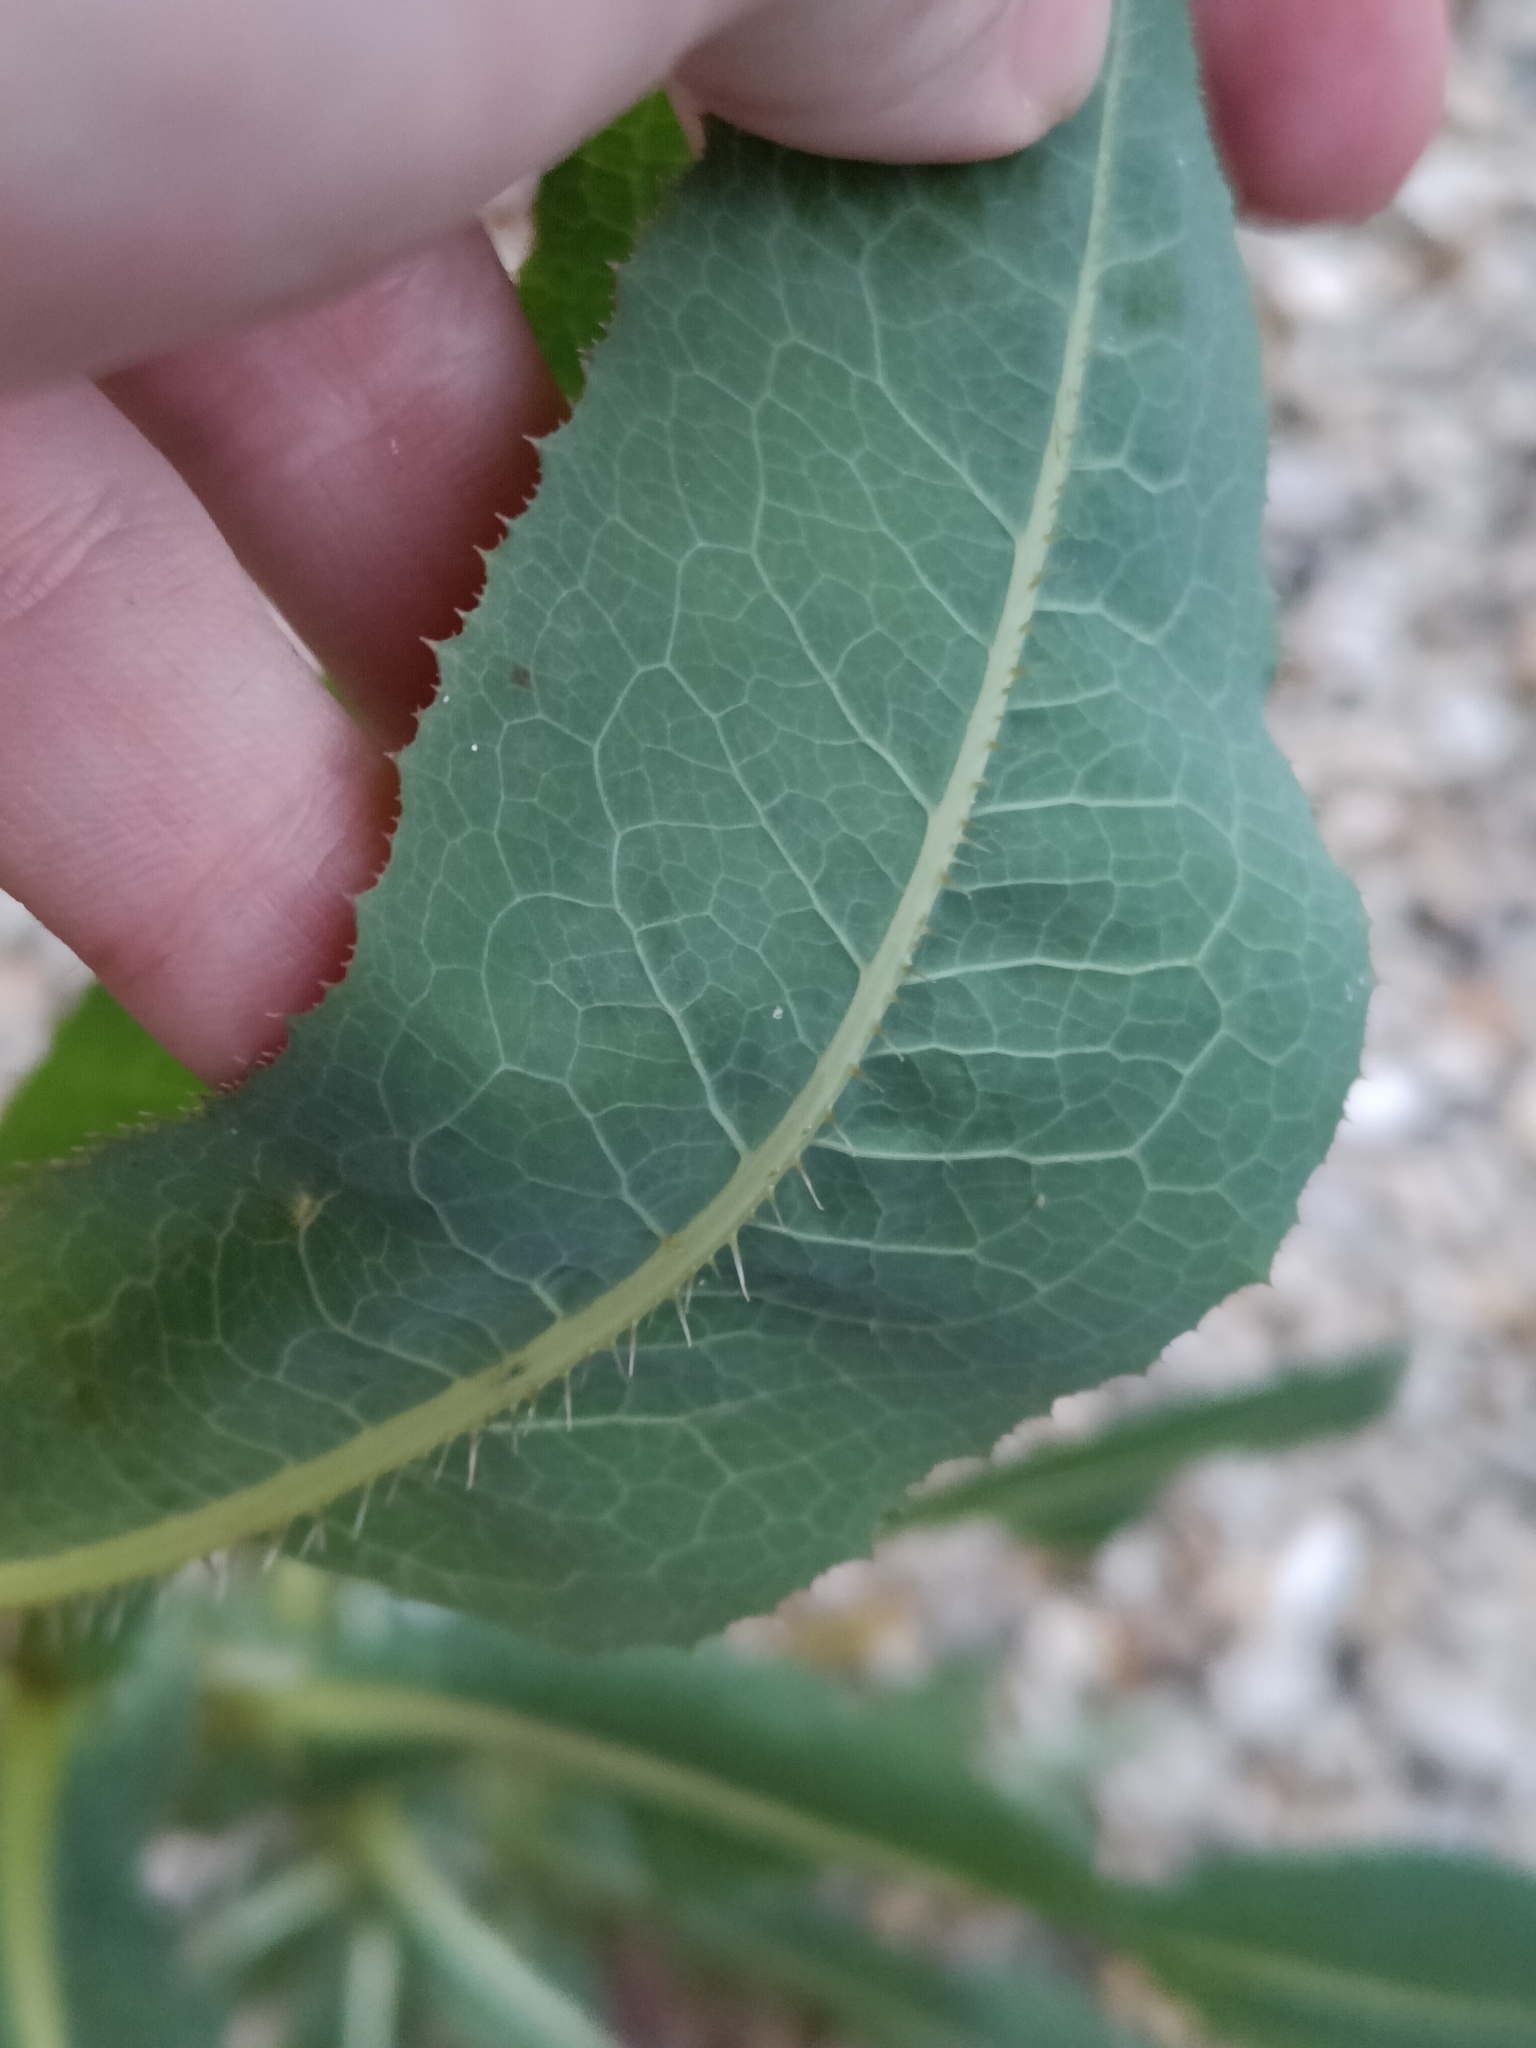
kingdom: Plantae
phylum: Tracheophyta
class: Magnoliopsida
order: Asterales
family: Asteraceae
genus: Lactuca
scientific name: Lactuca serriola
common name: Prickly lettuce
